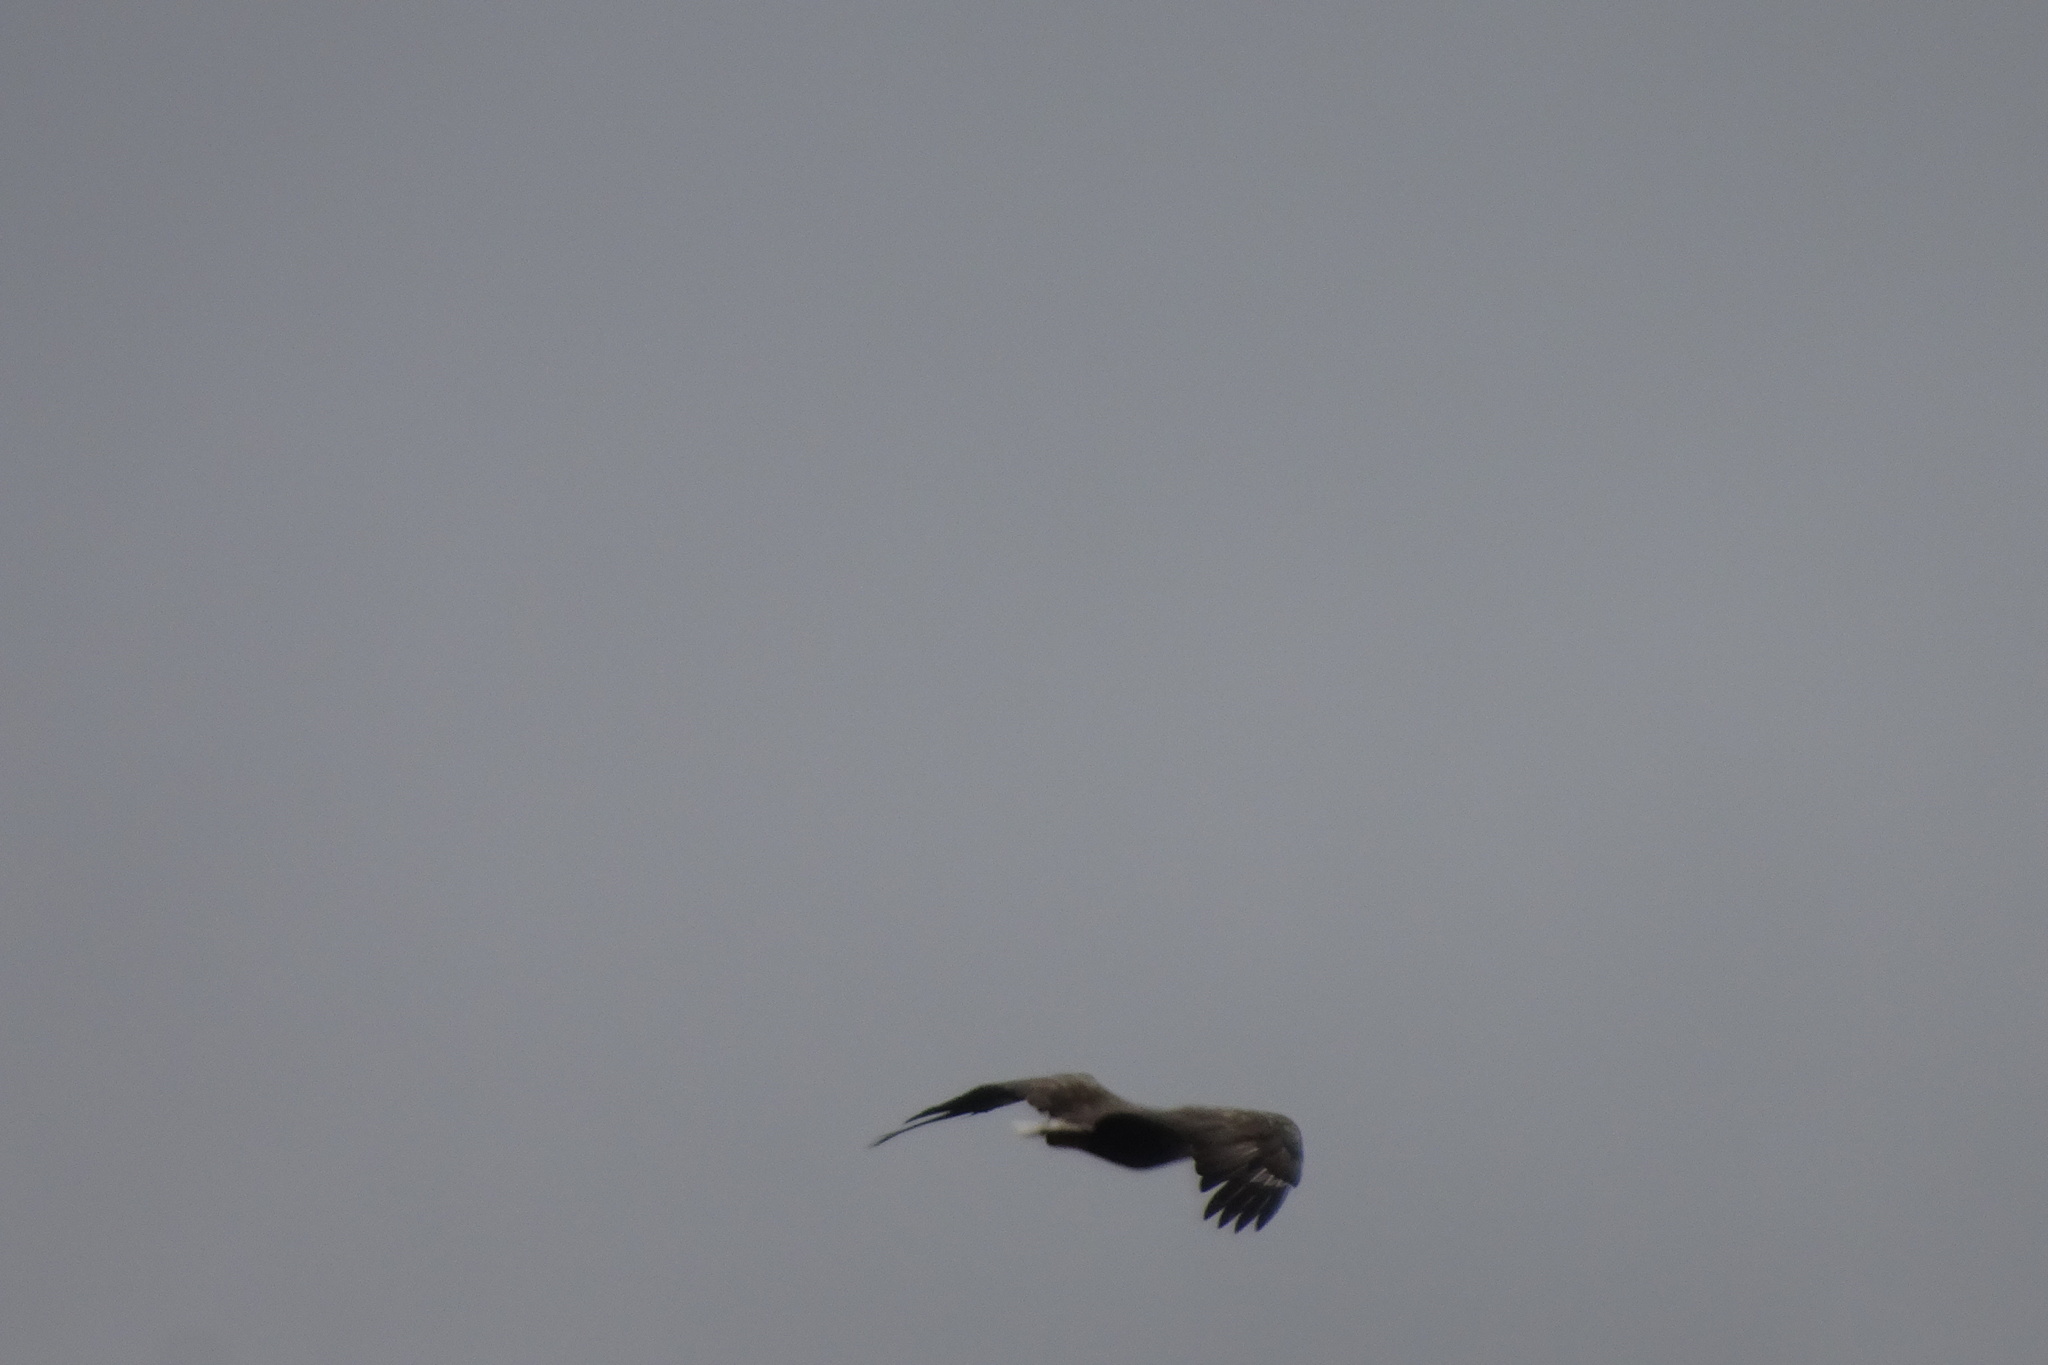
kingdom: Animalia
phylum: Chordata
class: Aves
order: Accipitriformes
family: Accipitridae
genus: Haliaeetus
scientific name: Haliaeetus albicilla
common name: White-tailed eagle
